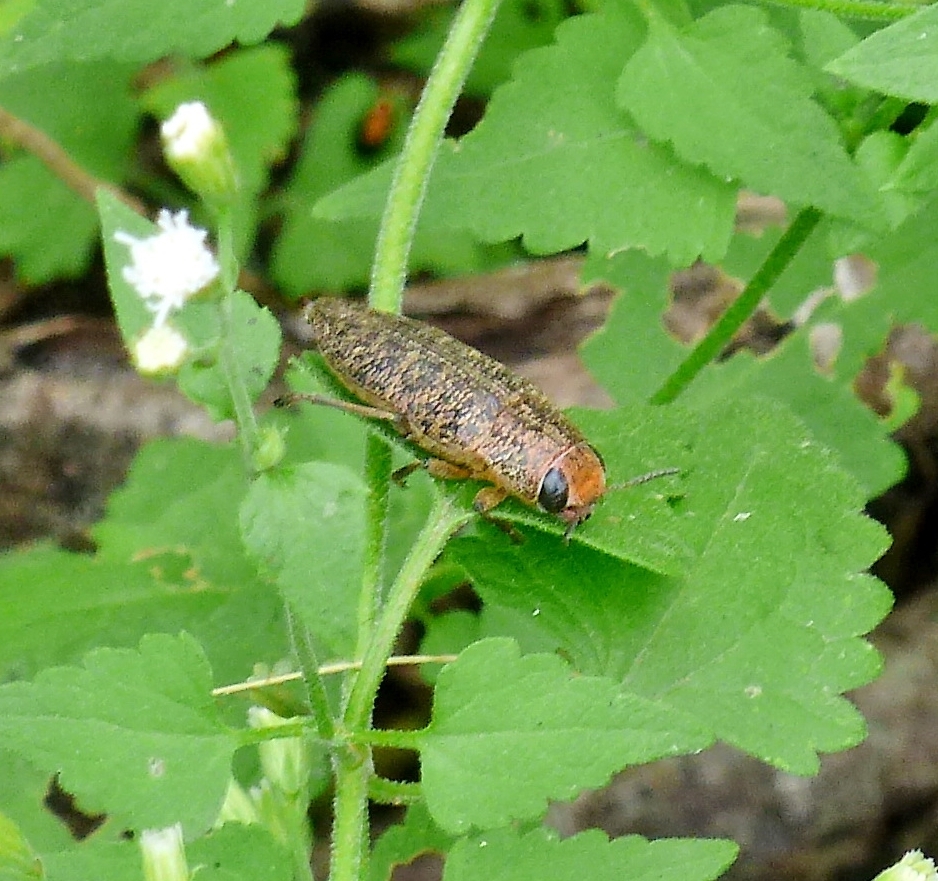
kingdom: Animalia
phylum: Arthropoda
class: Insecta
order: Coleoptera
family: Buprestidae
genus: Lampetis
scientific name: Lampetis cupreopunctata
